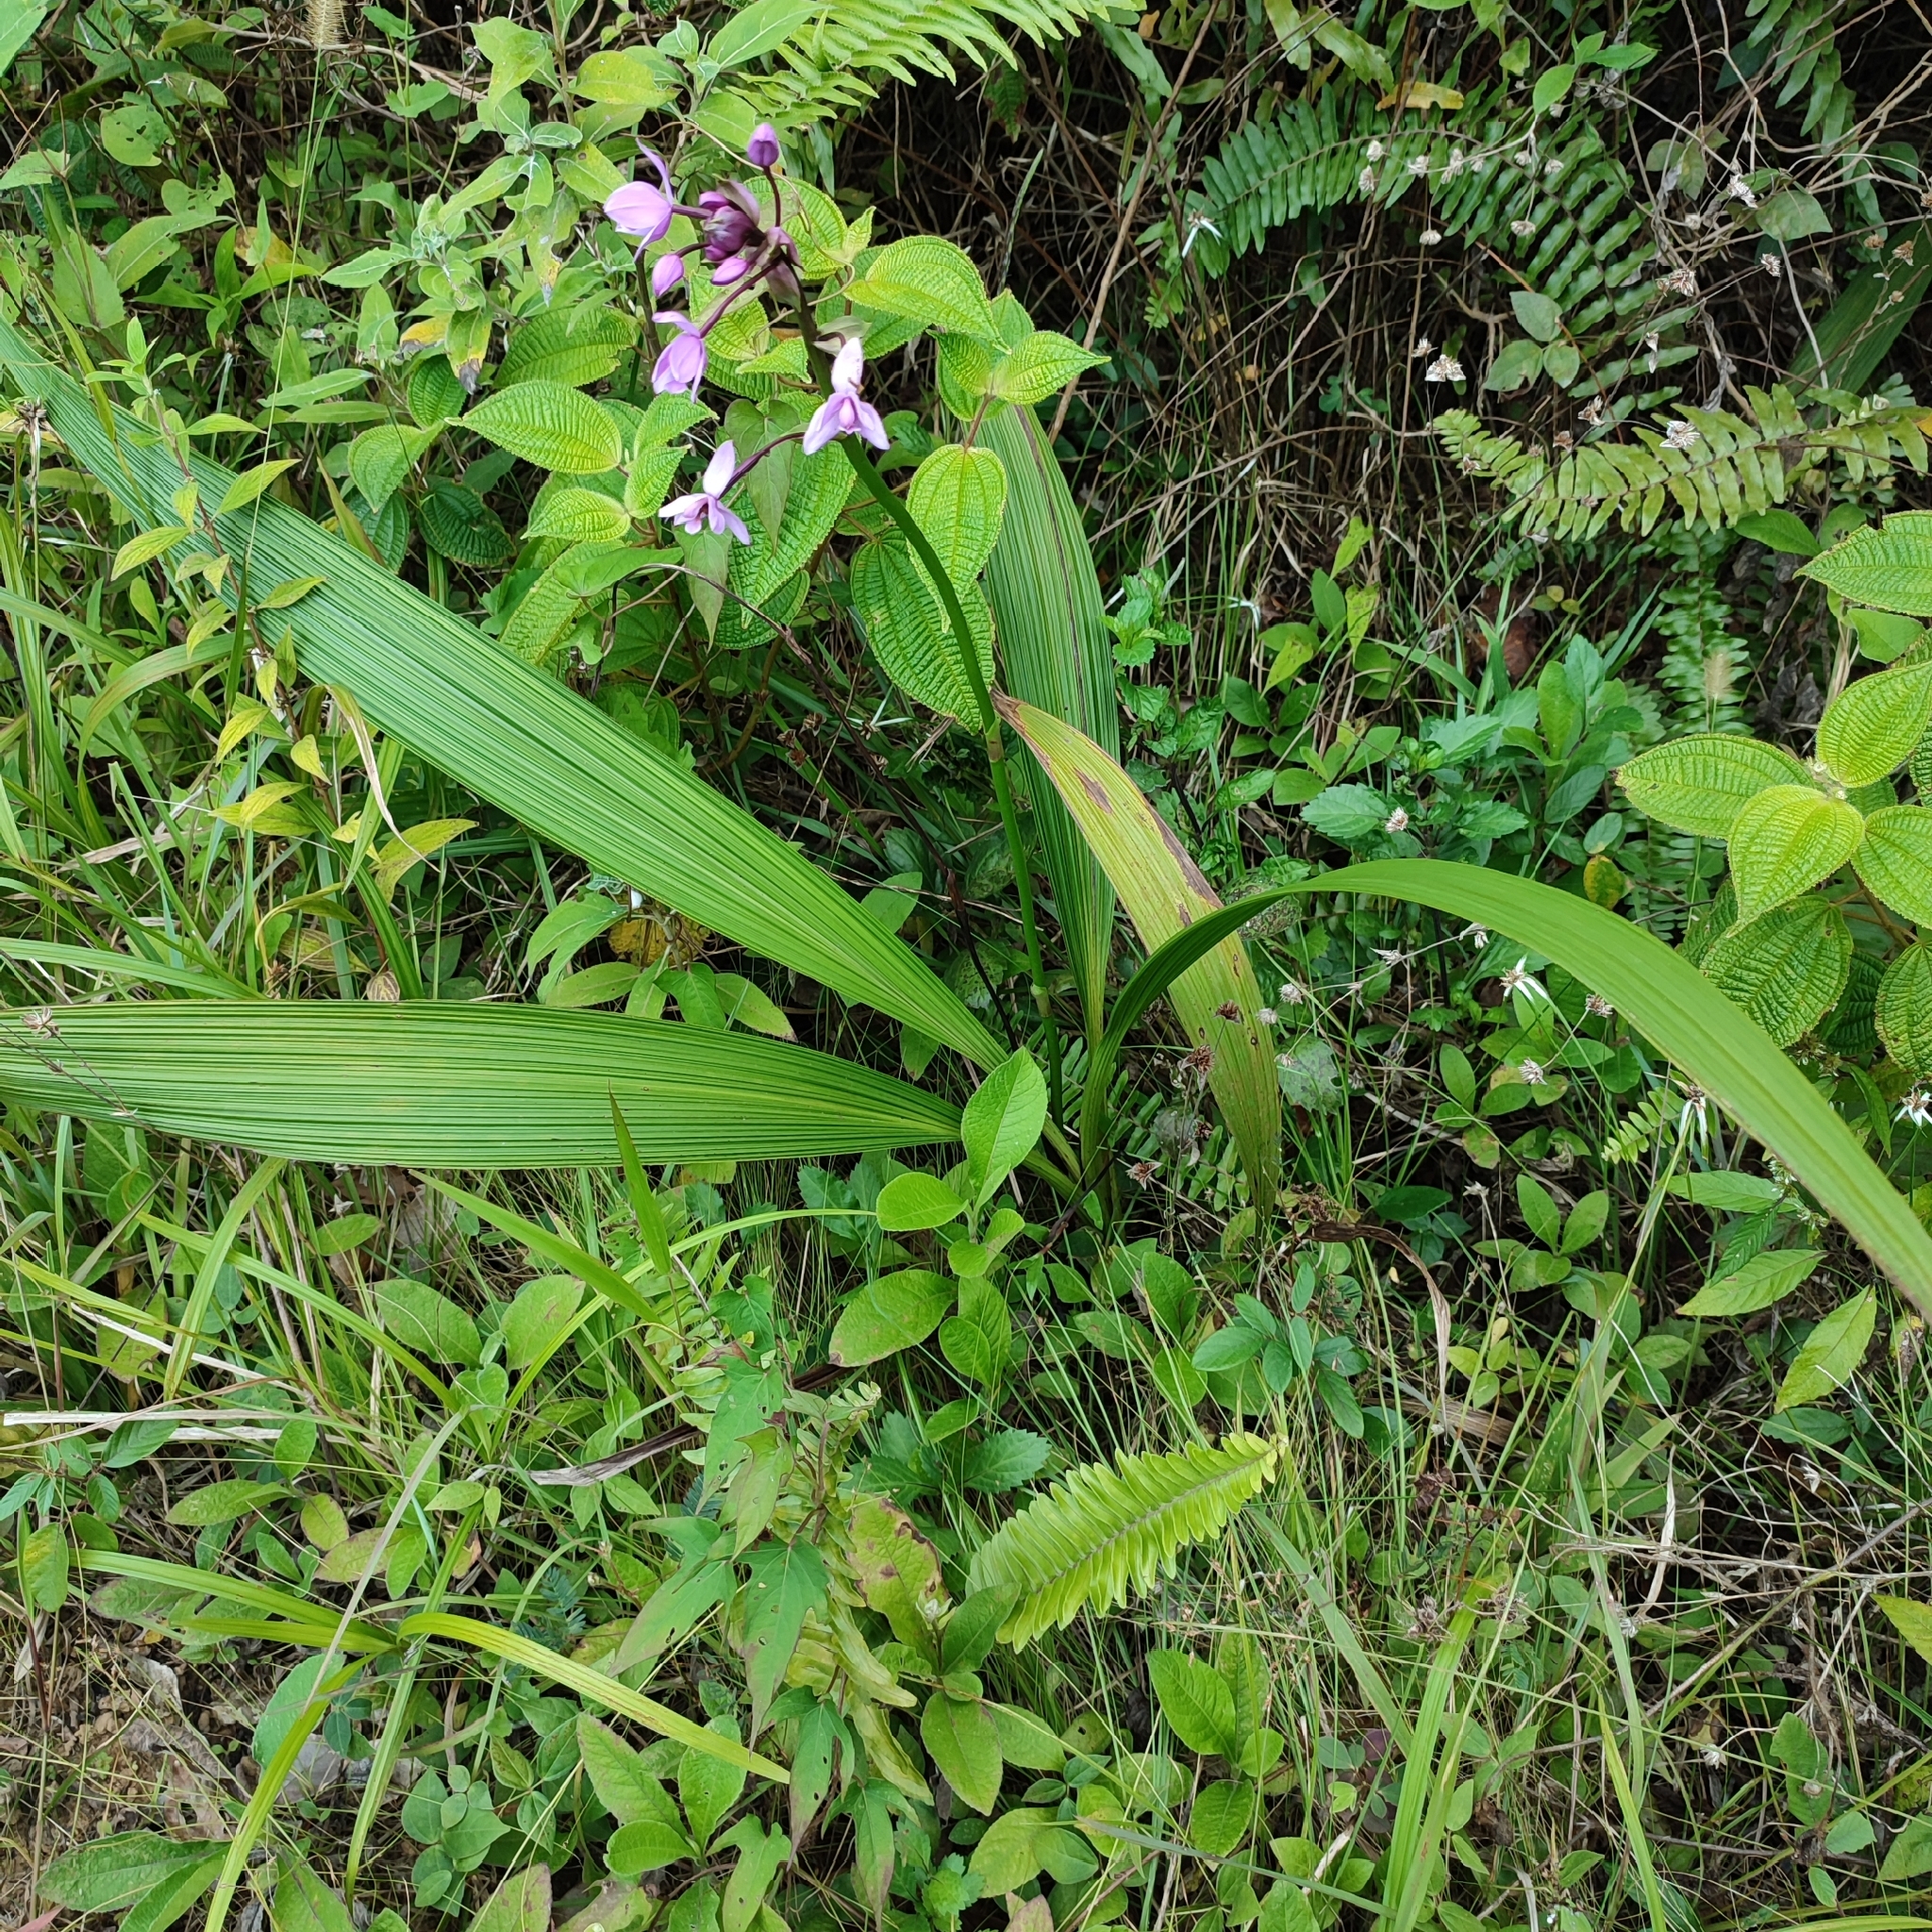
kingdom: Plantae
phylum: Tracheophyta
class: Liliopsida
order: Asparagales
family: Orchidaceae
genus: Spathoglottis
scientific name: Spathoglottis plicata
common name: Philippine ground orchid
